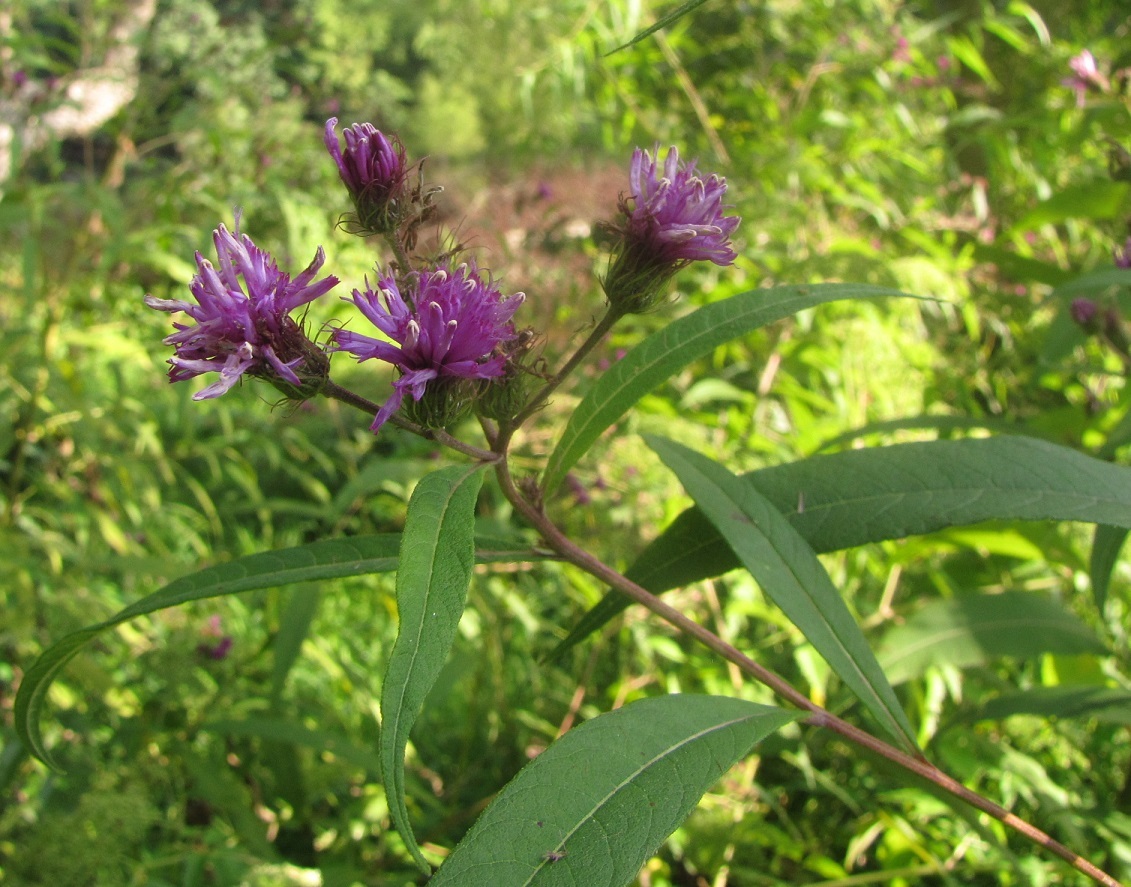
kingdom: Plantae
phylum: Tracheophyta
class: Magnoliopsida
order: Asterales
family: Asteraceae
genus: Vernonia
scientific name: Vernonia noveboracensis
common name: New york ironweed
